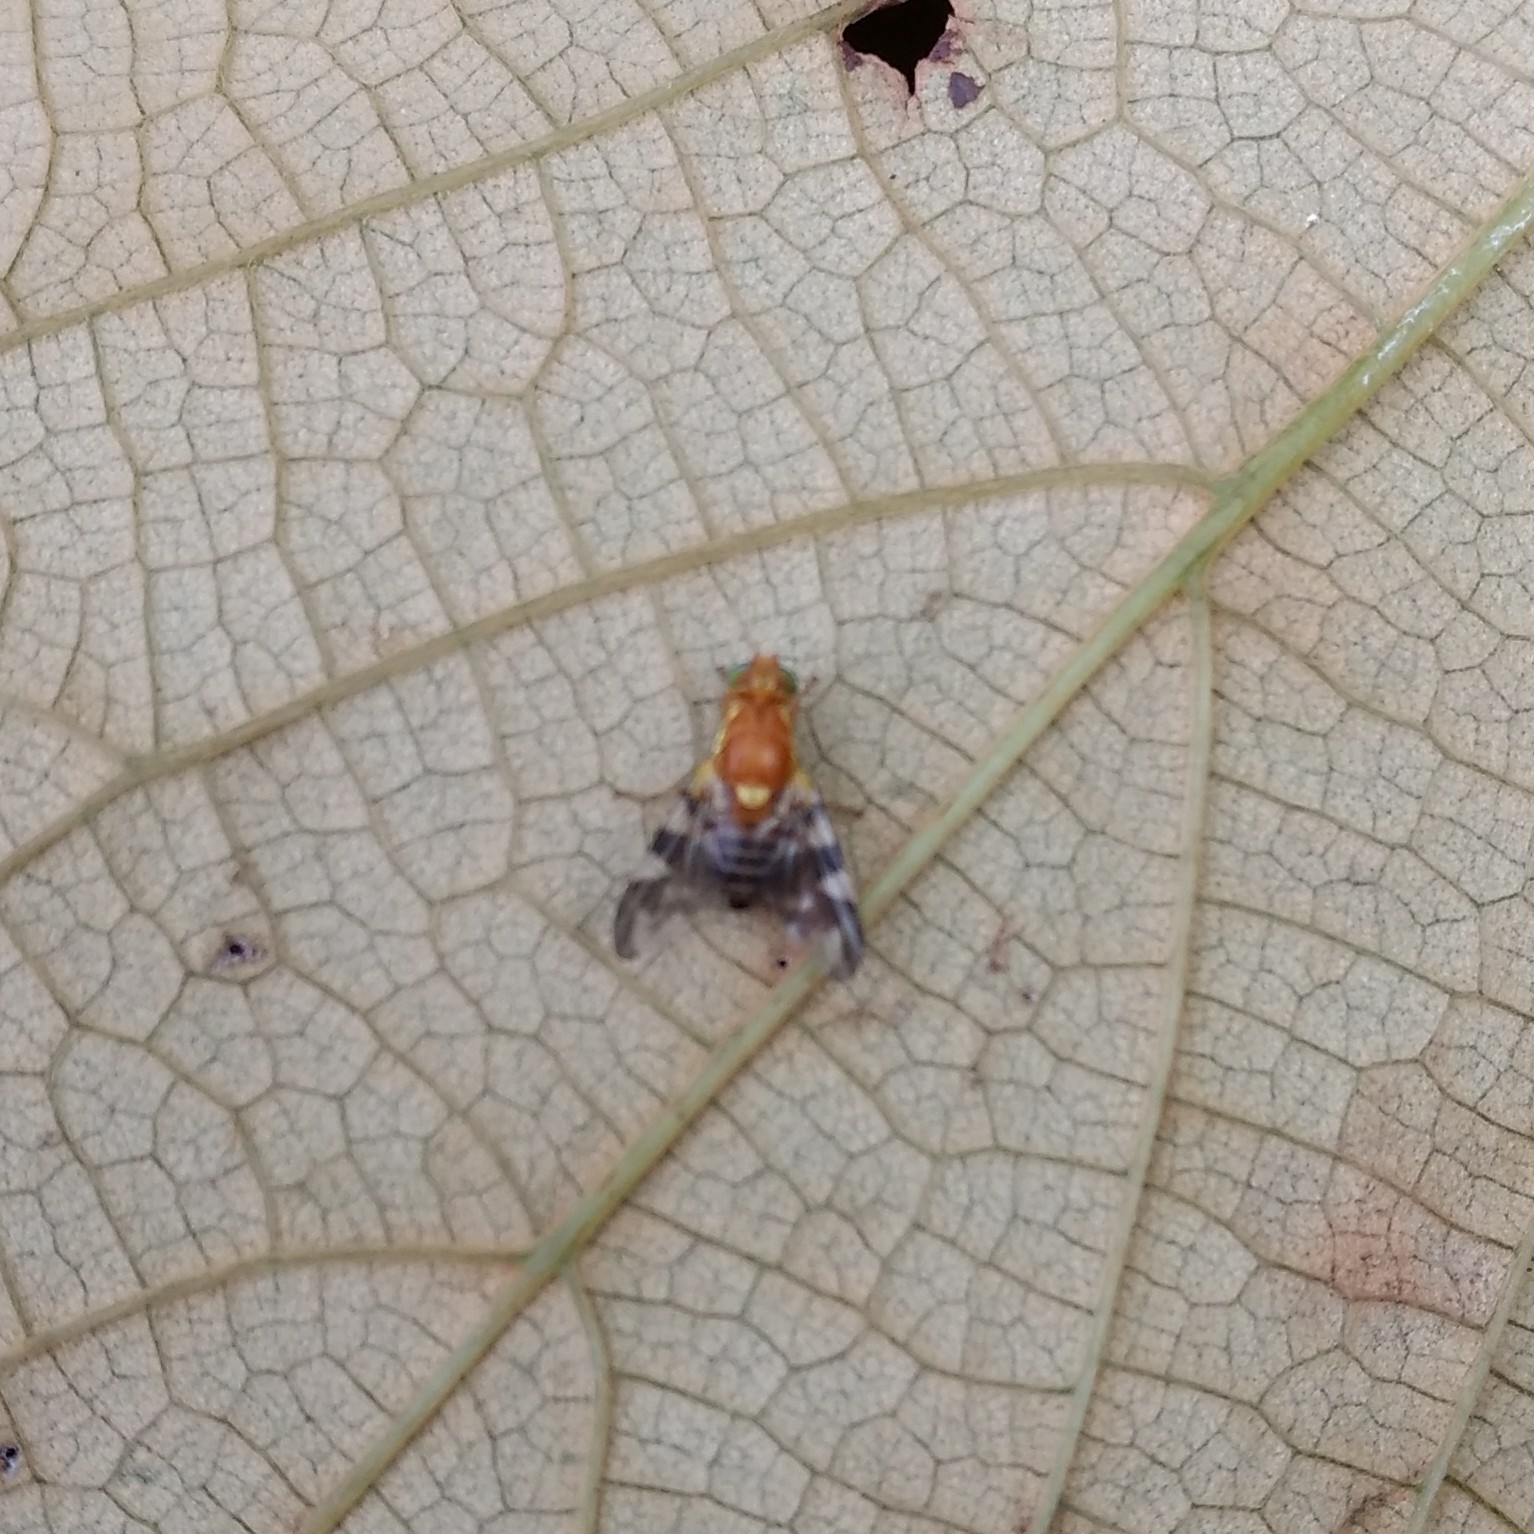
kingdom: Animalia
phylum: Arthropoda
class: Insecta
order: Diptera
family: Tephritidae
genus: Rhagoletis
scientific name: Rhagoletis suavis
